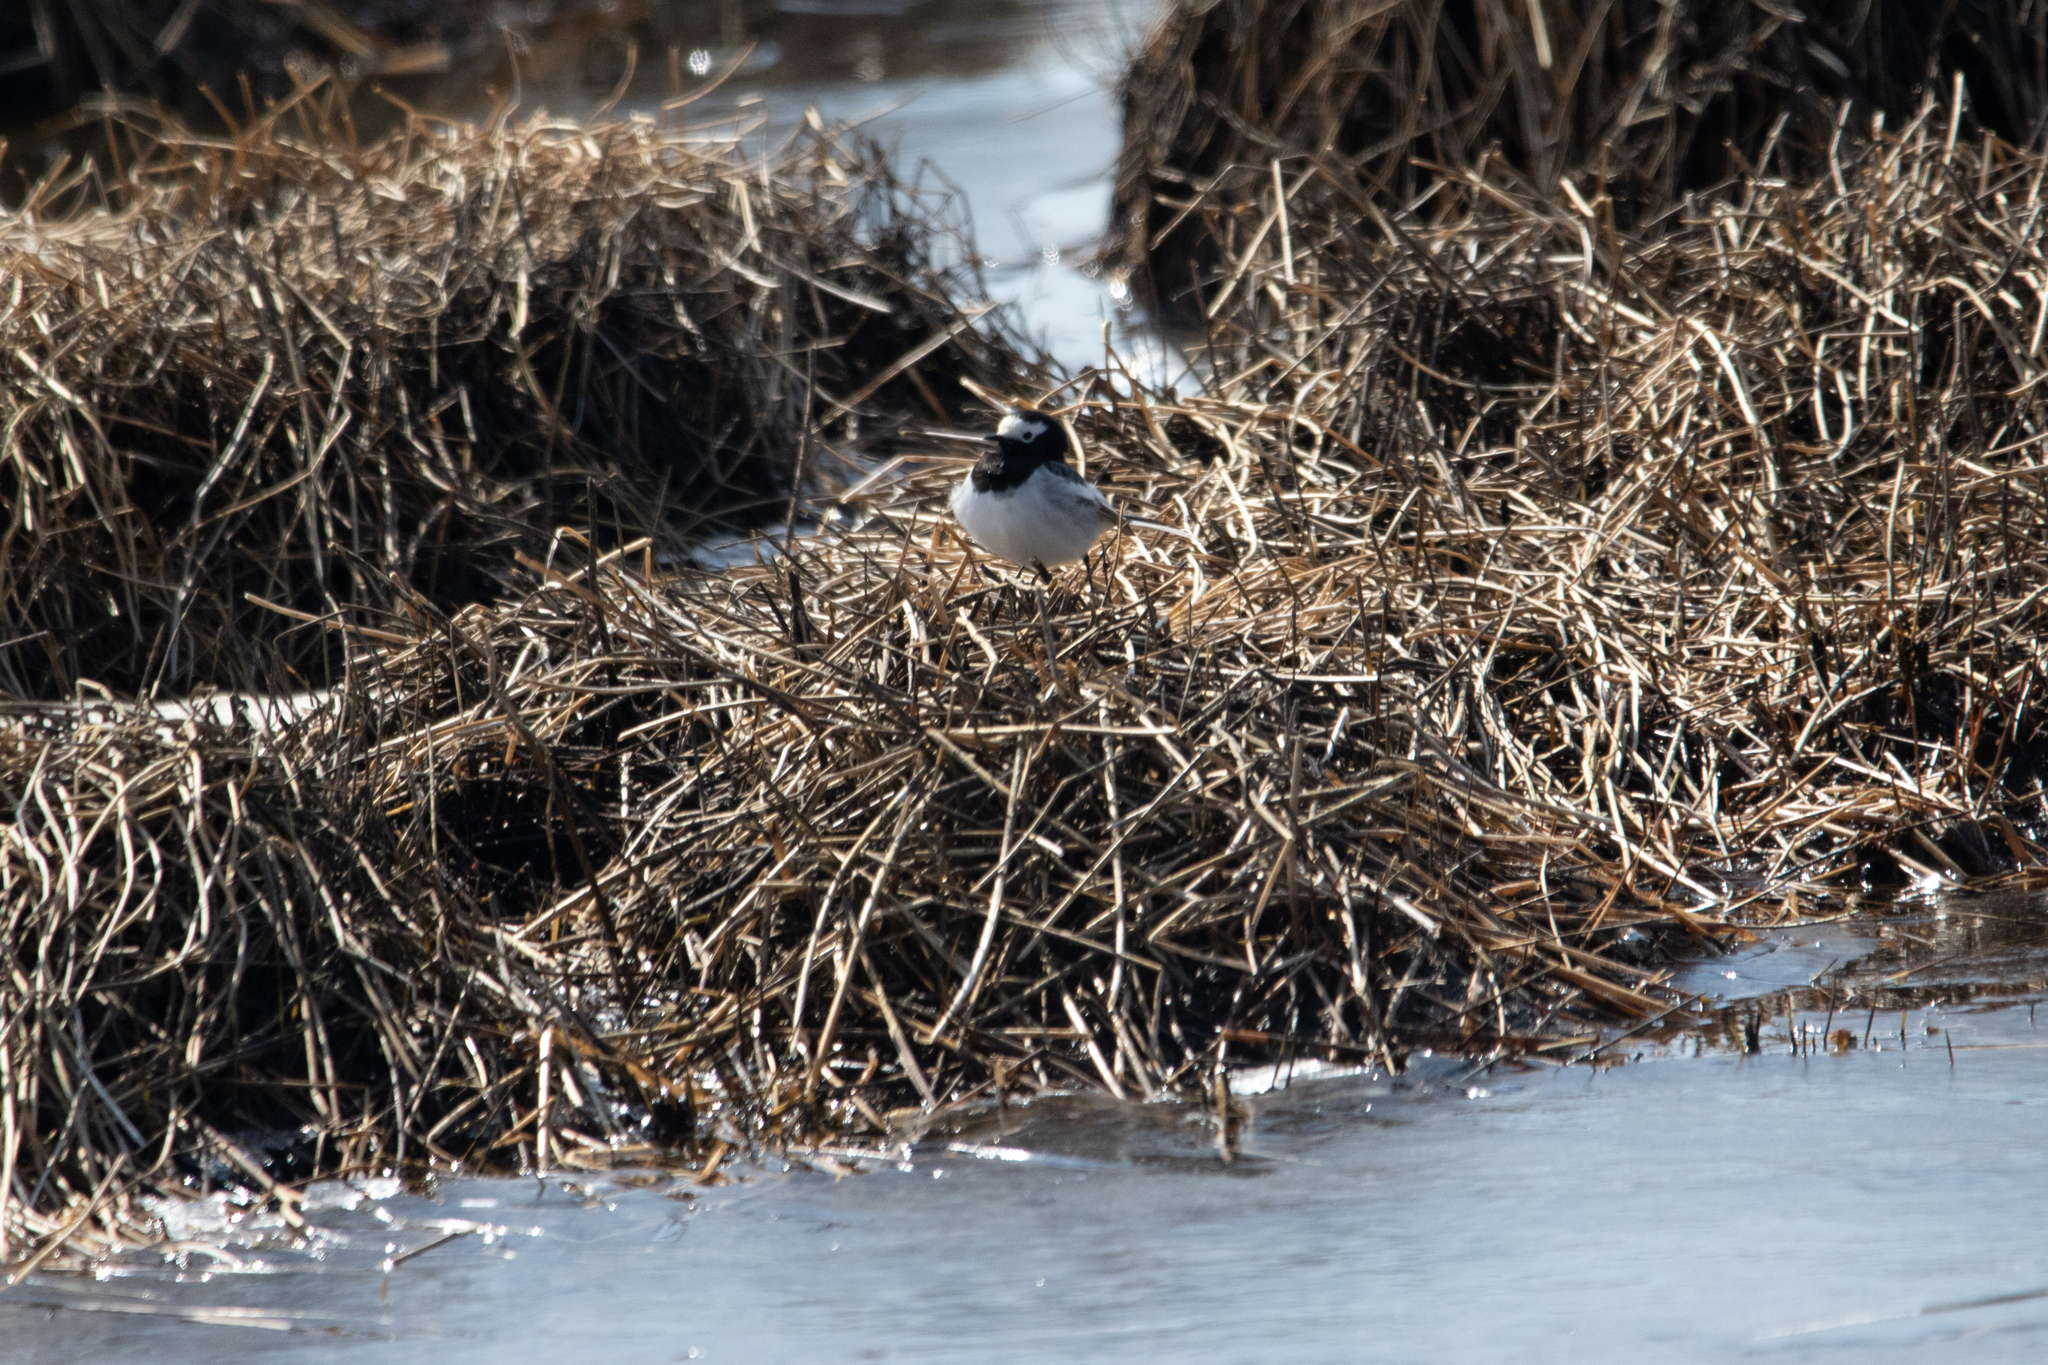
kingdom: Animalia
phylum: Chordata
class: Aves
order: Passeriformes
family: Motacillidae
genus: Motacilla
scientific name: Motacilla alba
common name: White wagtail
